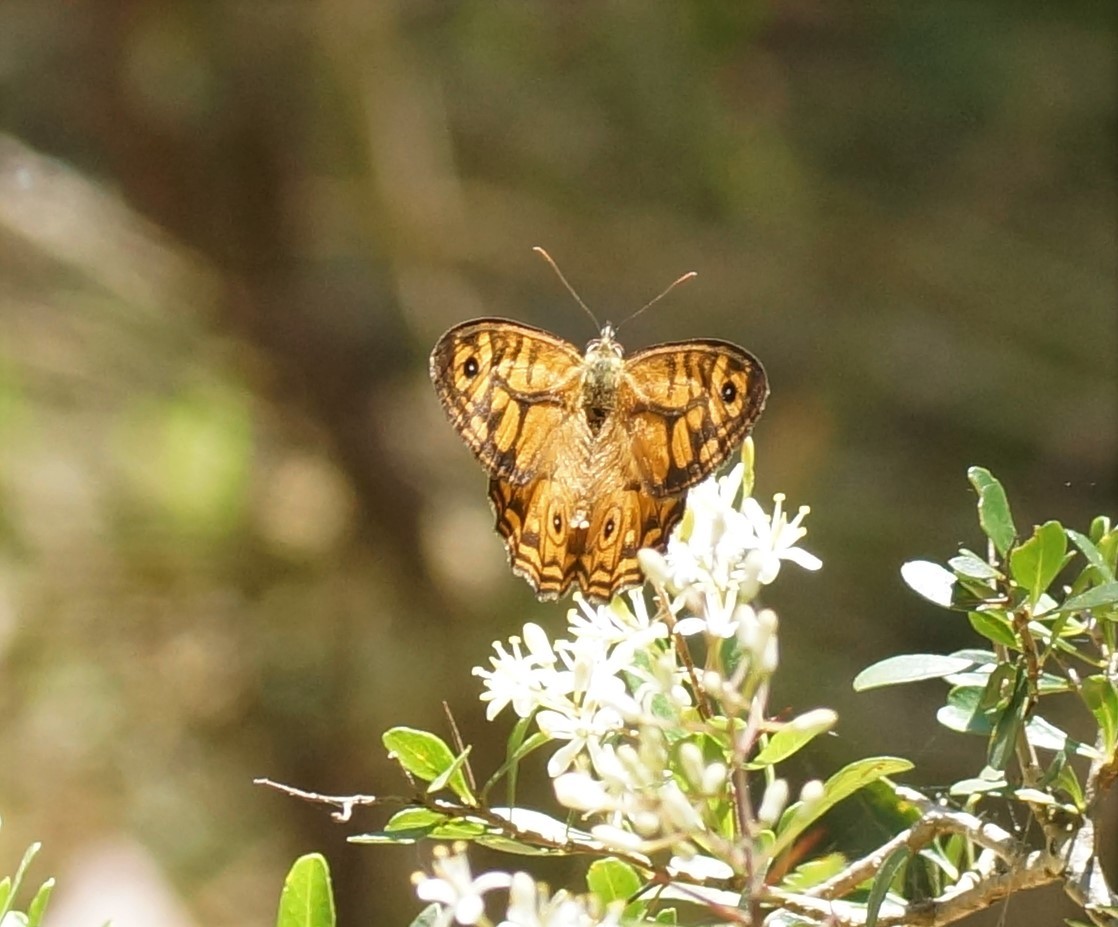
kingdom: Animalia
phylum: Arthropoda
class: Insecta
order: Lepidoptera
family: Nymphalidae
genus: Geitoneura
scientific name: Geitoneura acantha
